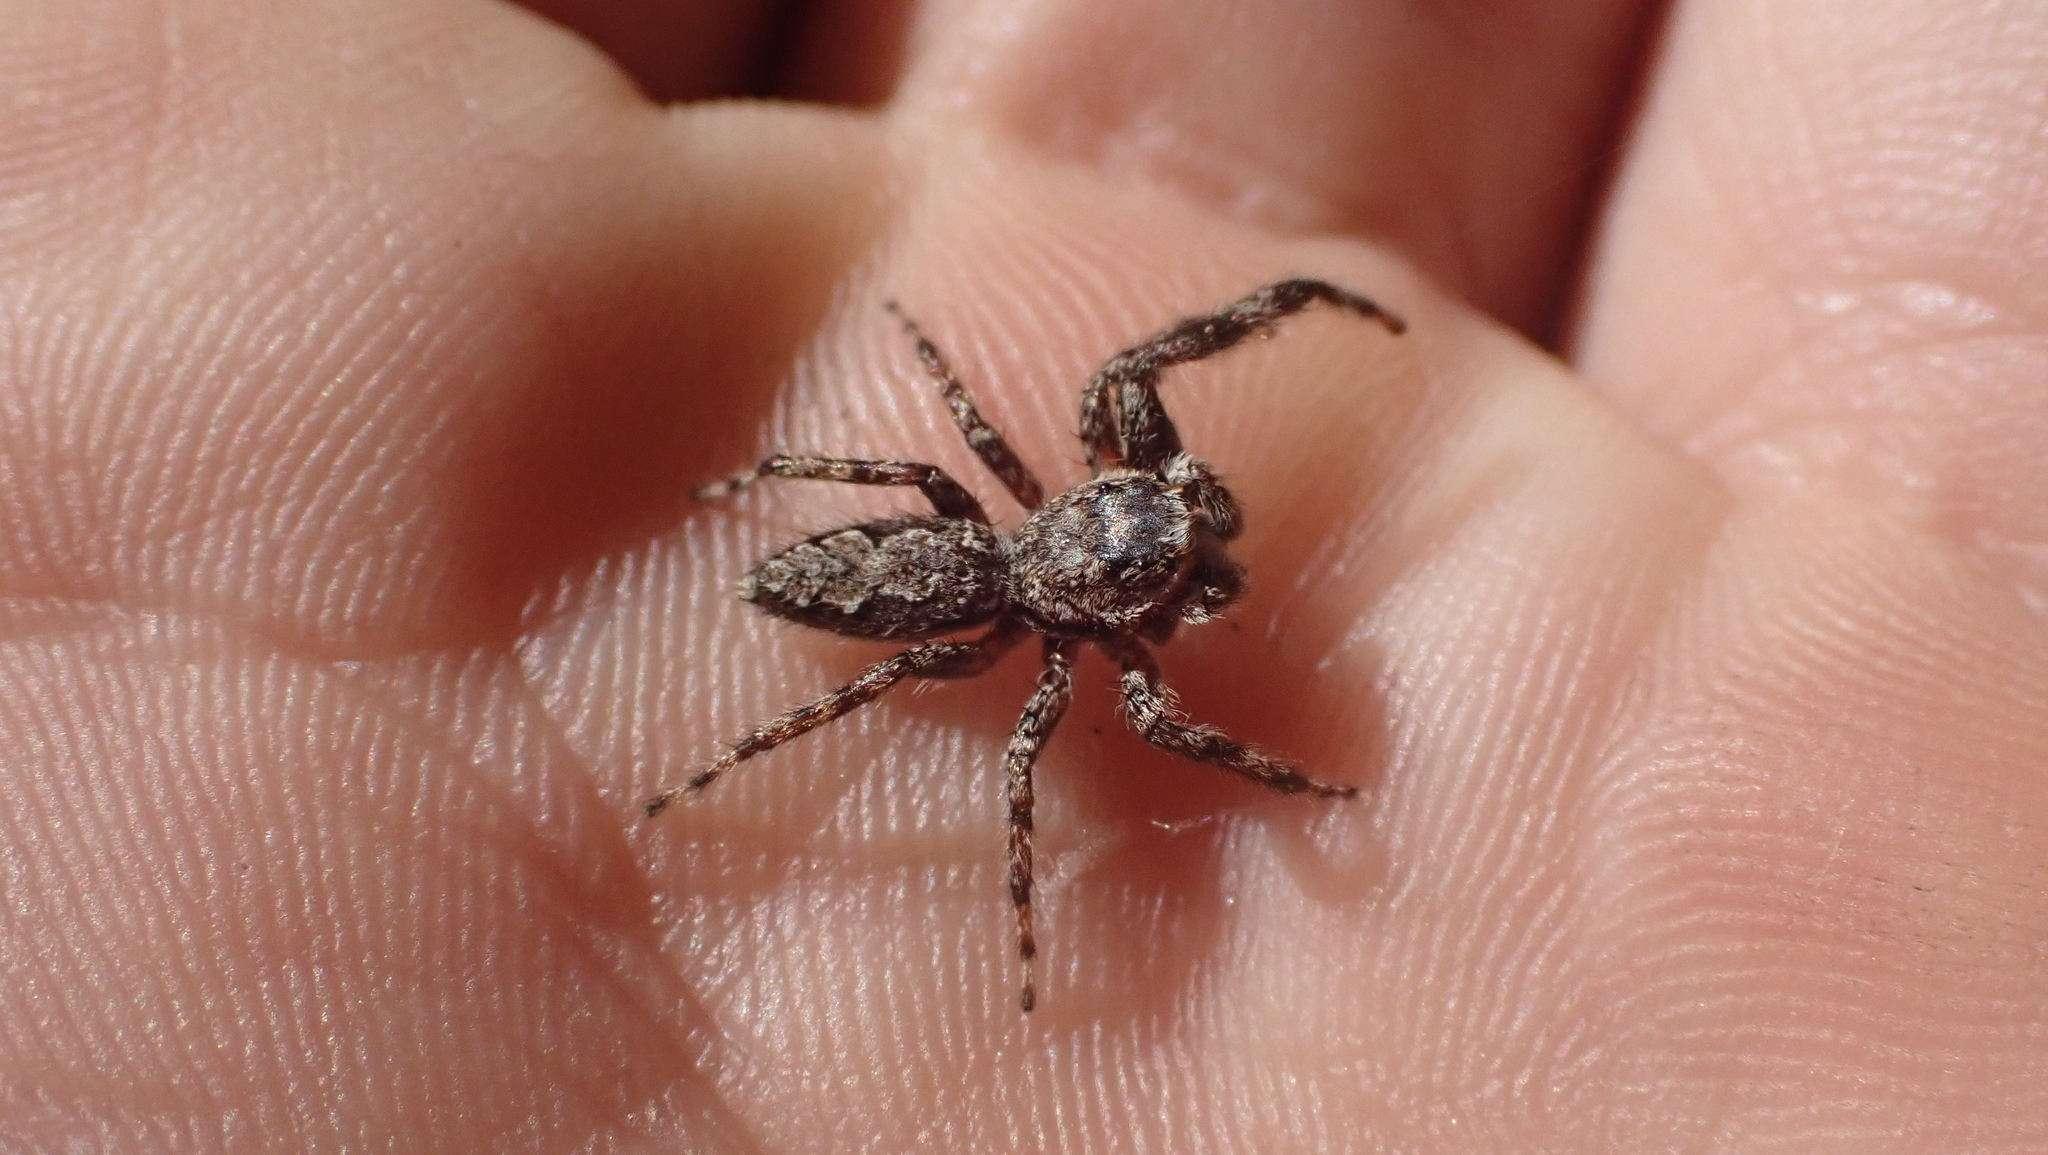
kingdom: Animalia
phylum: Arthropoda
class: Arachnida
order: Araneae
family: Salticidae
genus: Platycryptus
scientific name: Platycryptus undatus
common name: Tan jumping spider
